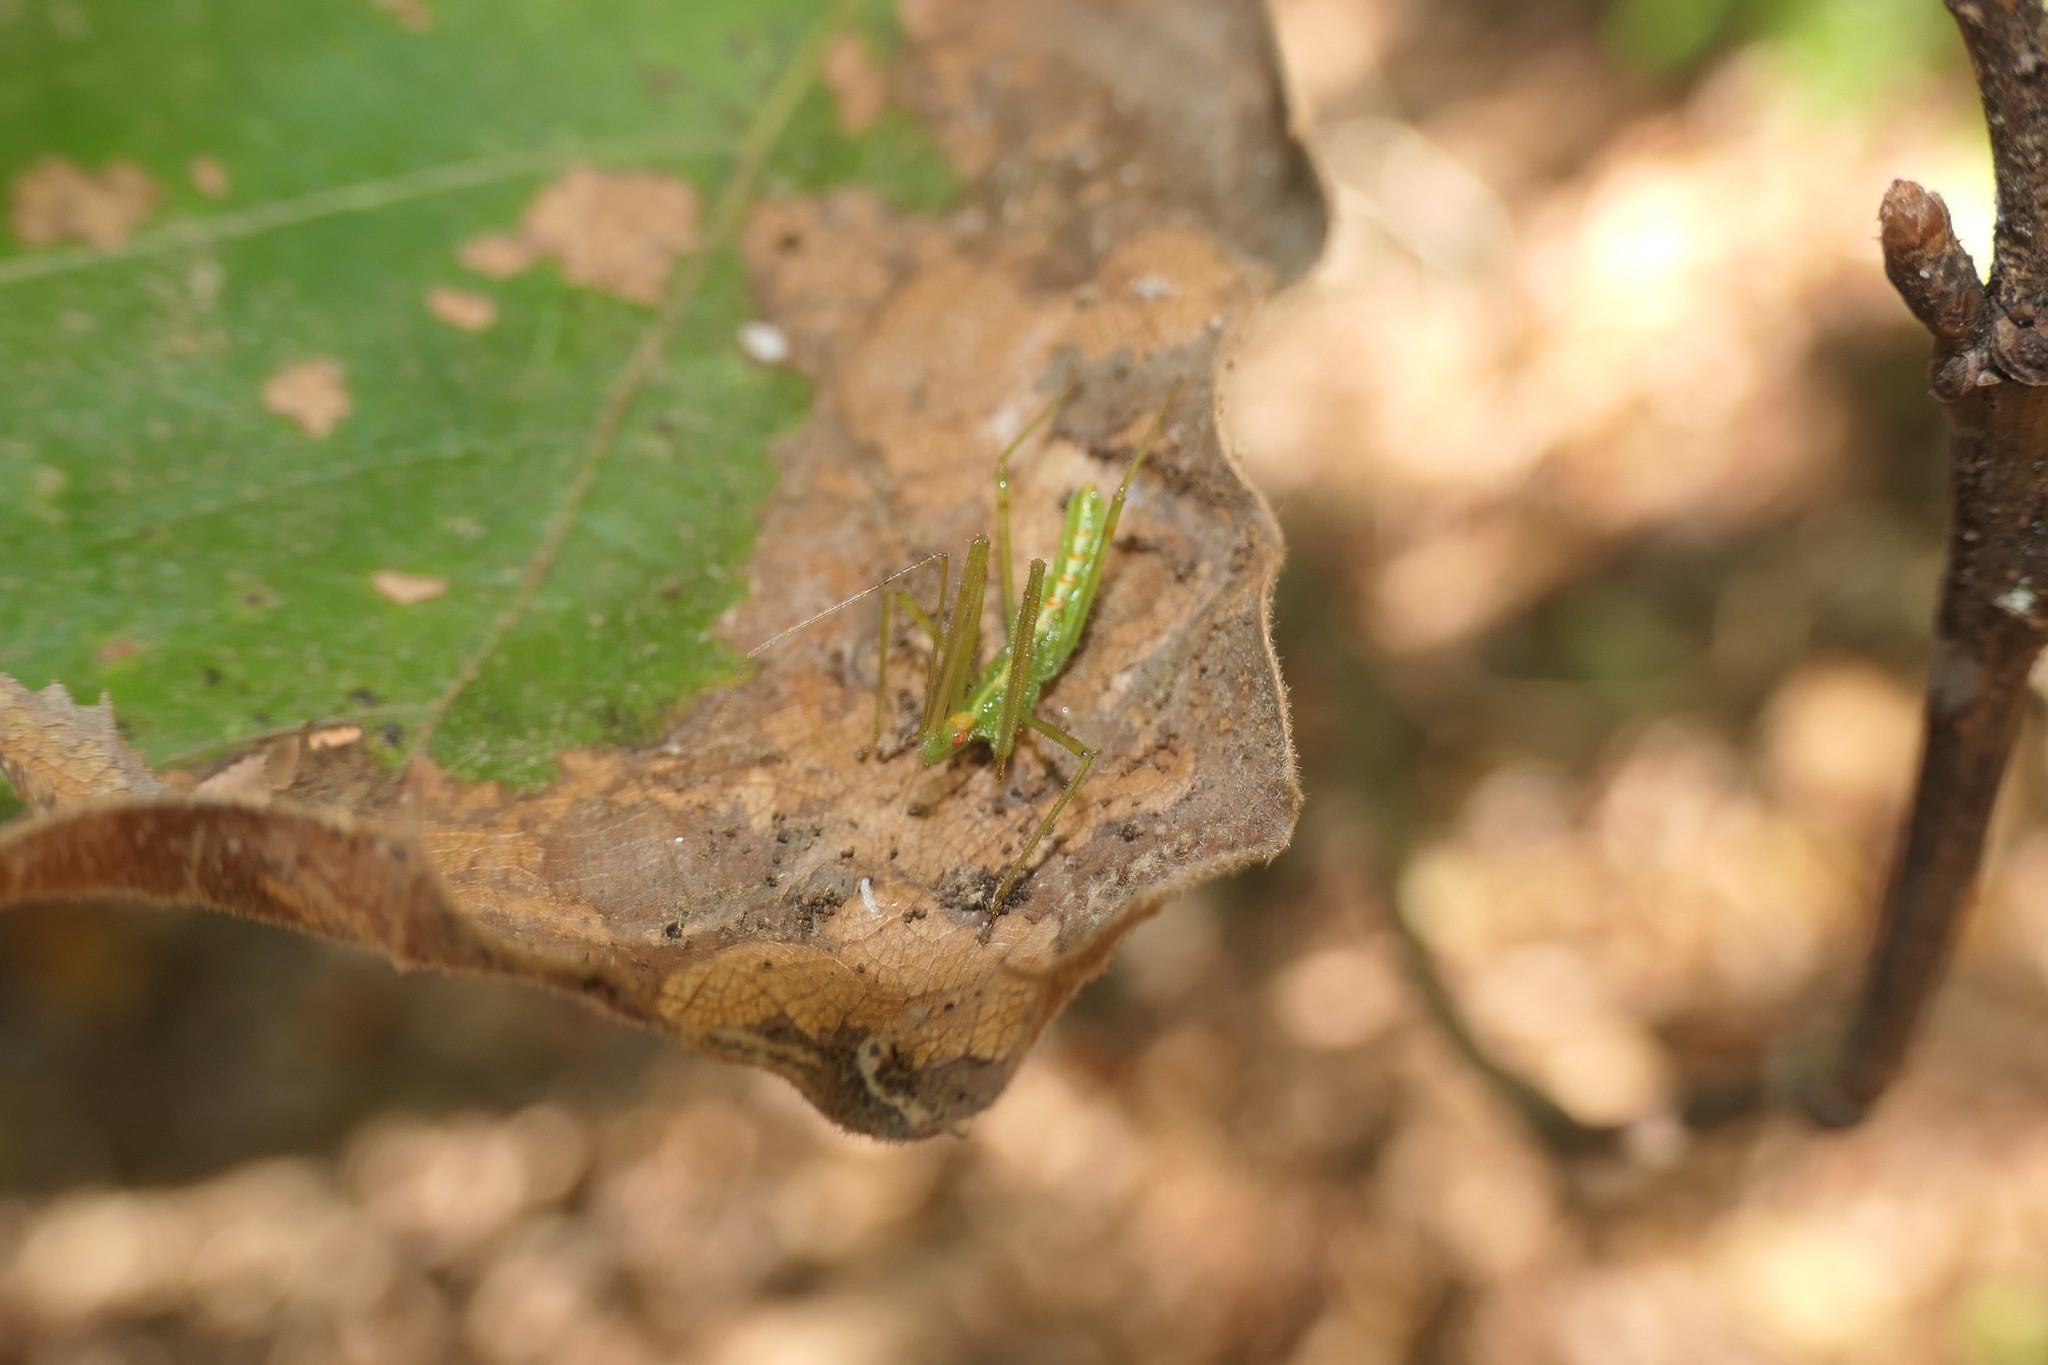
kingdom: Animalia
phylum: Arthropoda
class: Insecta
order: Hemiptera
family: Reduviidae
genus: Zelus
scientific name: Zelus luridus
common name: Pale green assassin bug
